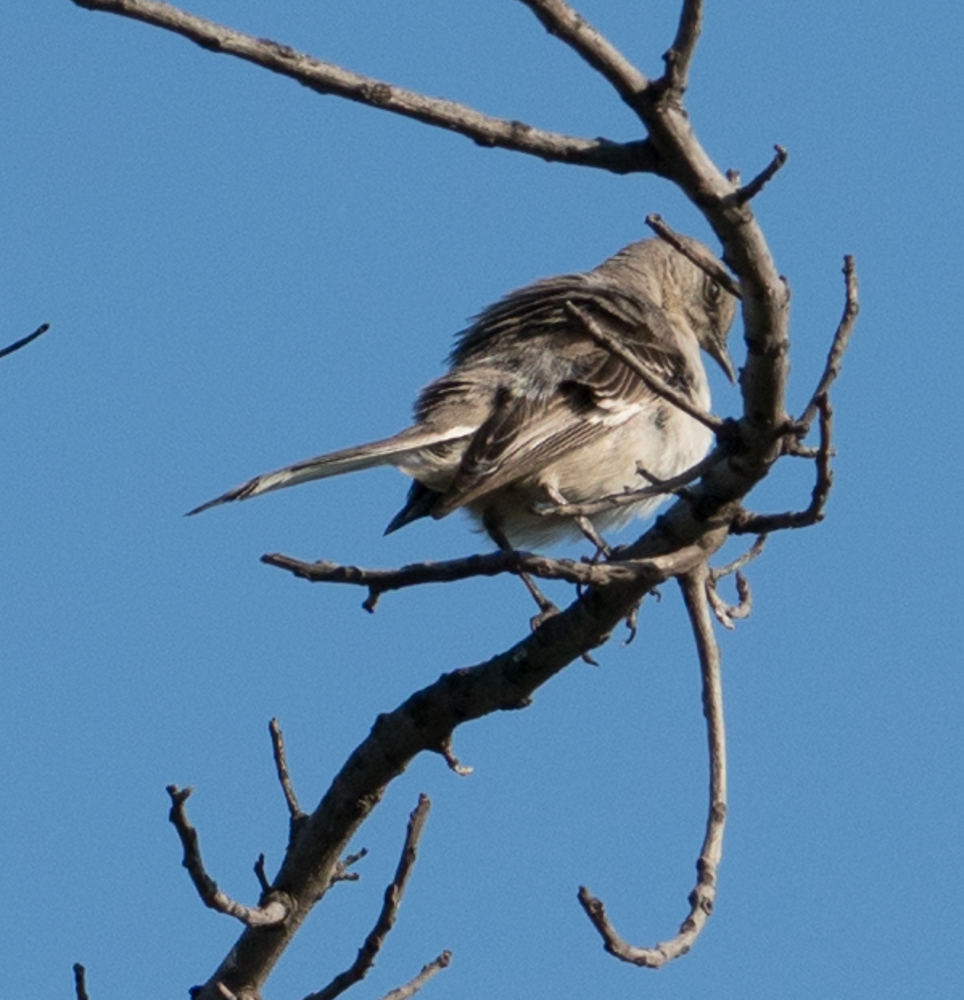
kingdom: Animalia
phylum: Chordata
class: Aves
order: Passeriformes
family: Mimidae
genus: Mimus
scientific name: Mimus polyglottos
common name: Northern mockingbird
